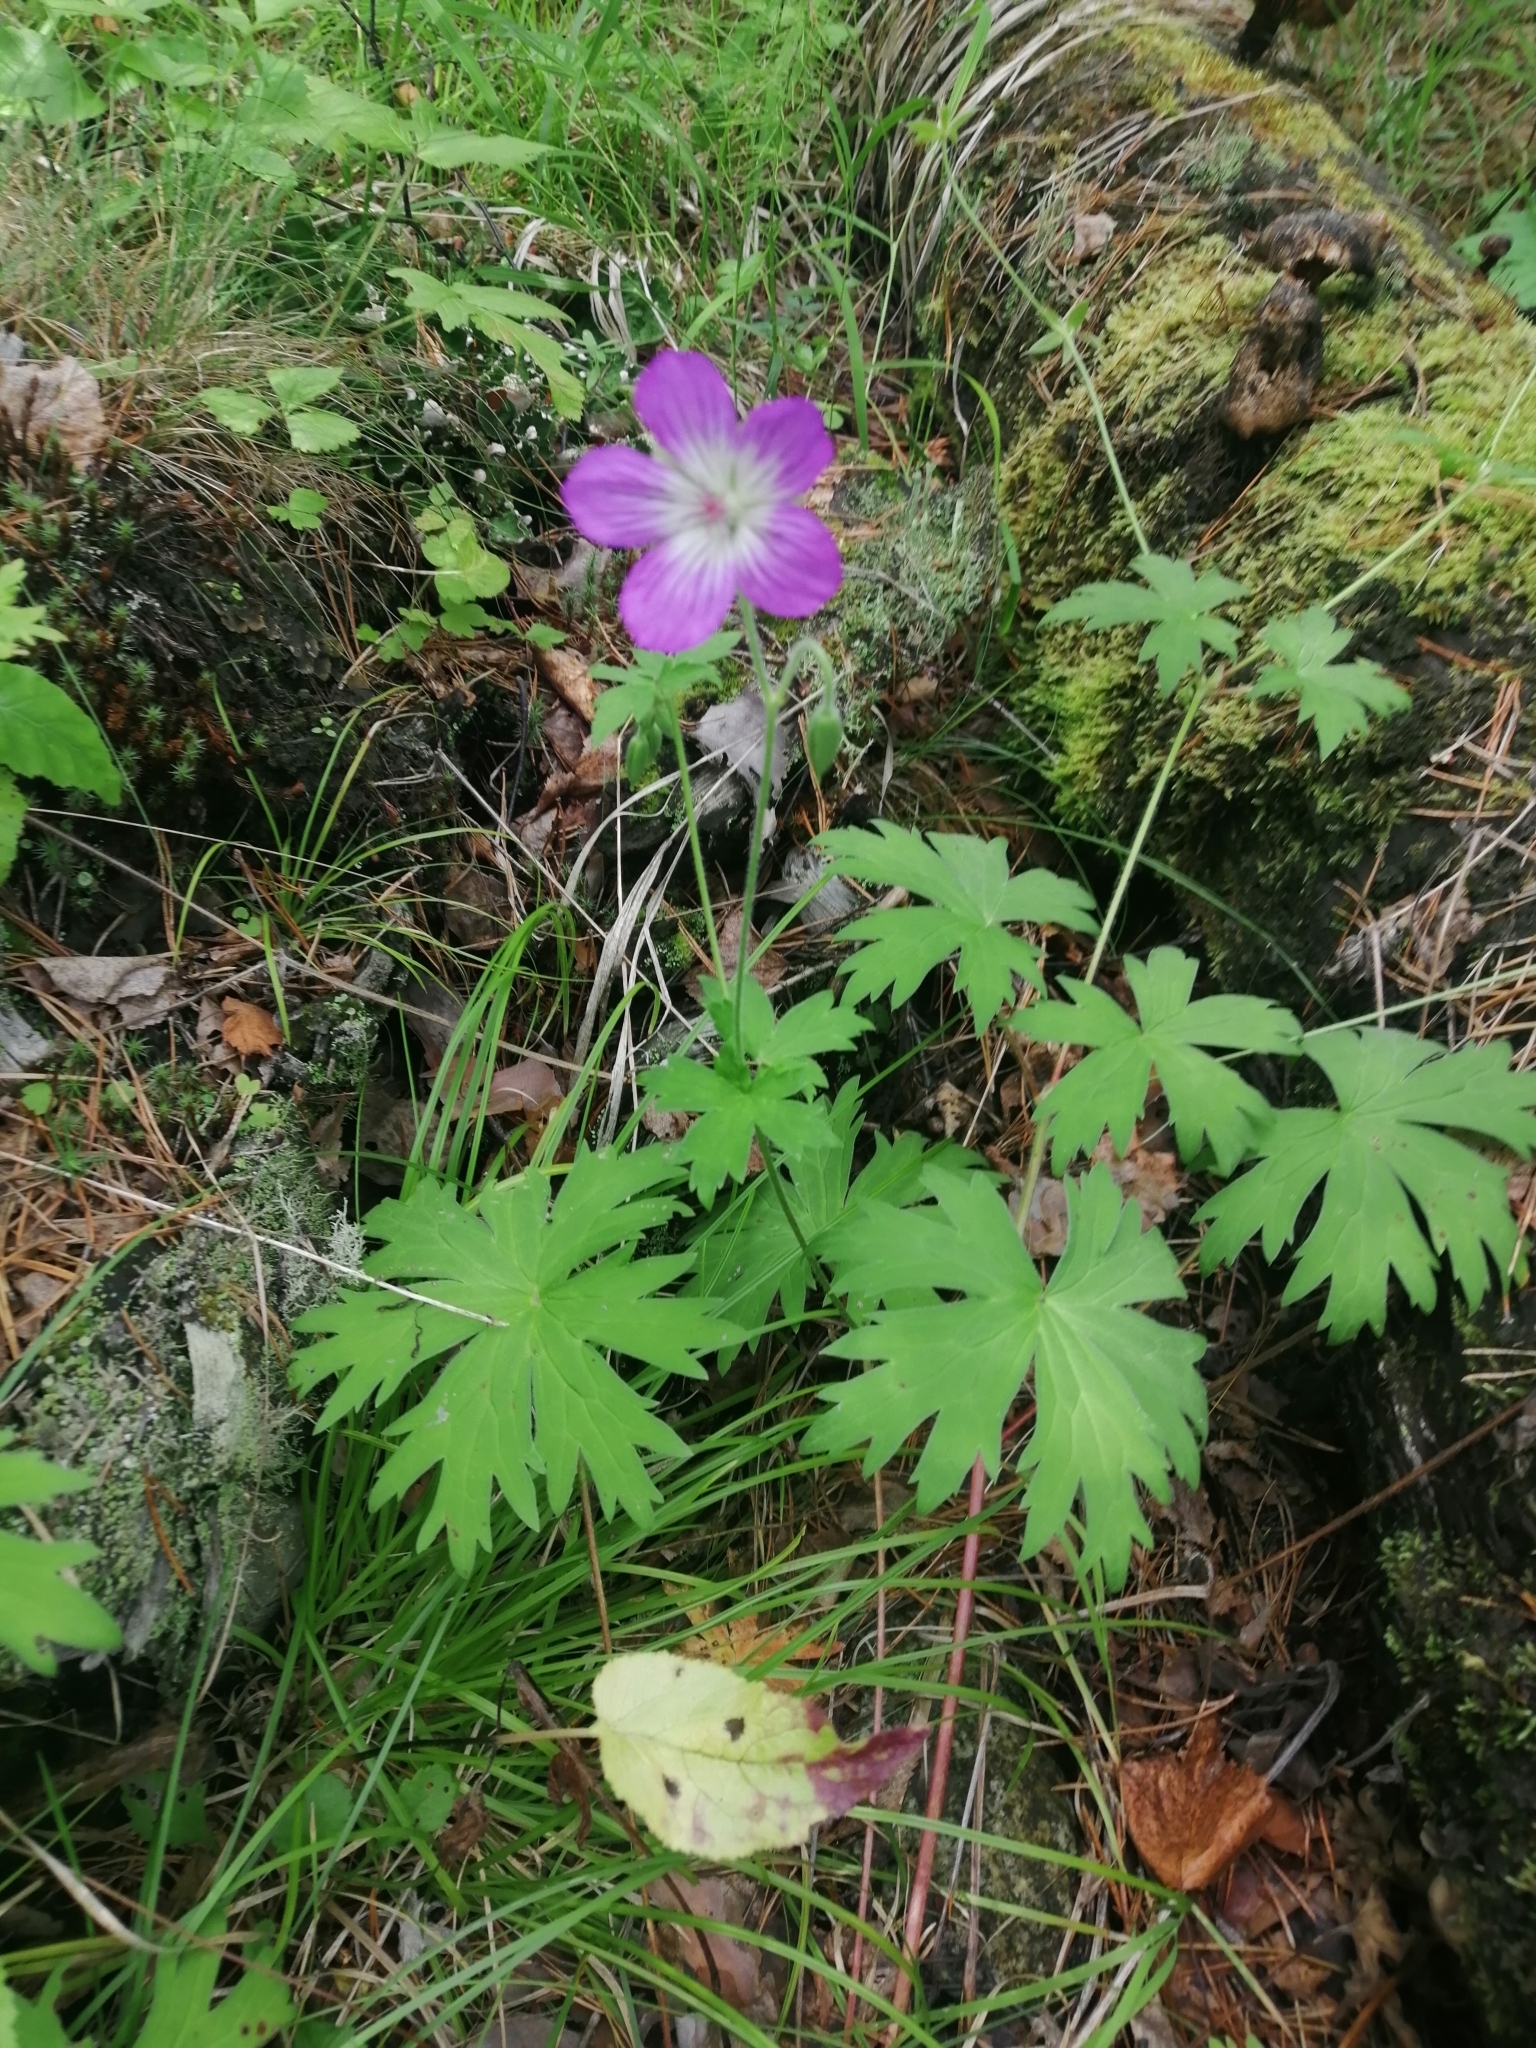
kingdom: Plantae
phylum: Tracheophyta
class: Magnoliopsida
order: Geraniales
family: Geraniaceae
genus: Geranium
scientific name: Geranium wlassovianum
